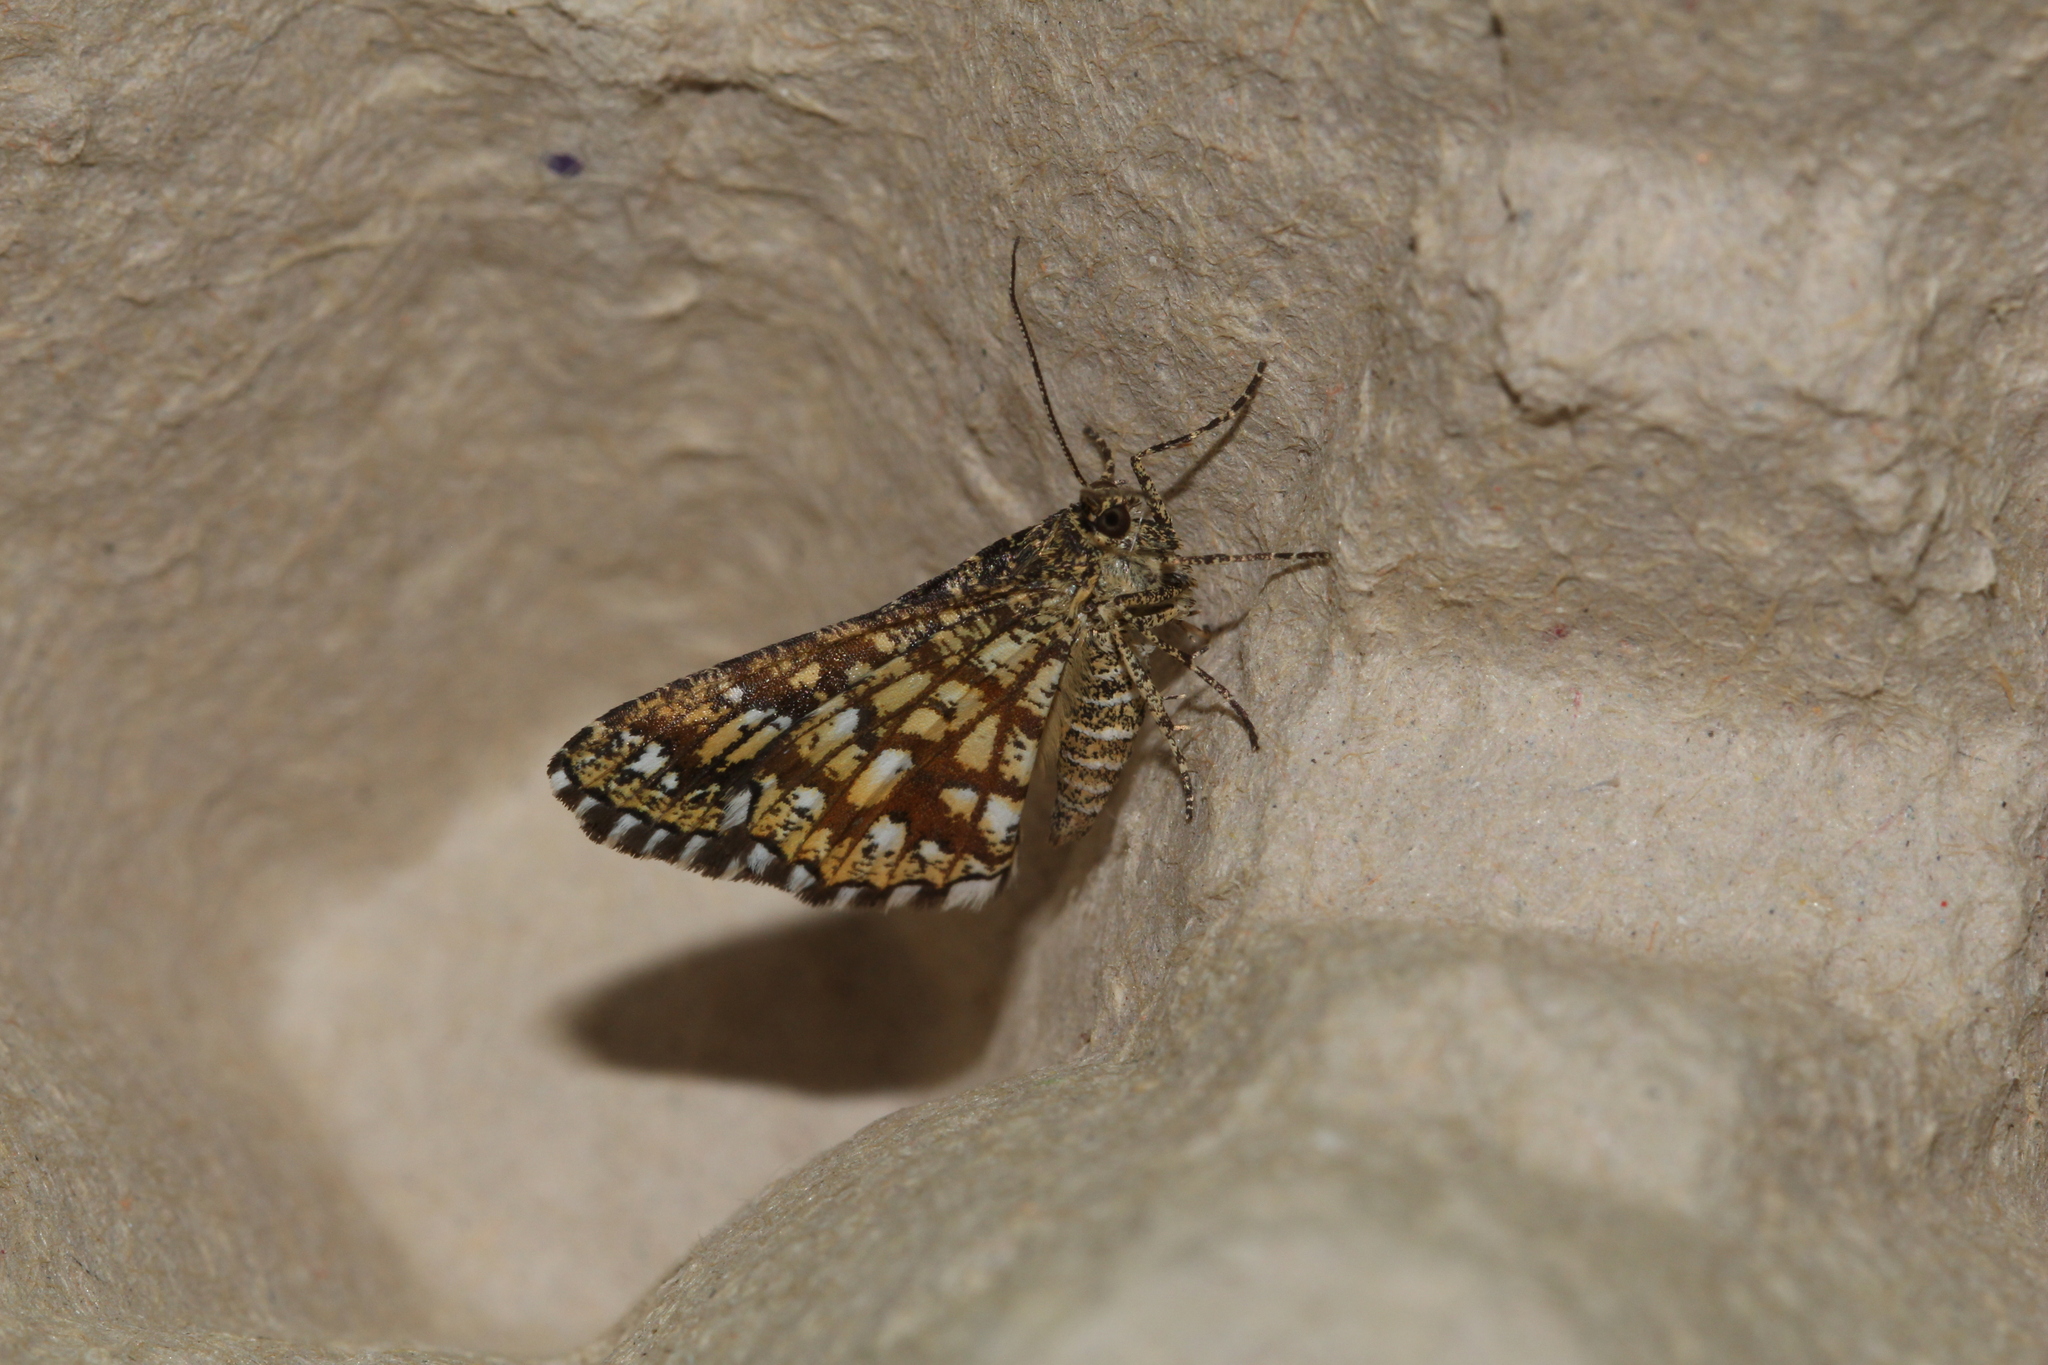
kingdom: Animalia
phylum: Arthropoda
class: Insecta
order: Lepidoptera
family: Geometridae
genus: Chiasmia
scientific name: Chiasmia clathrata
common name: Latticed heath
